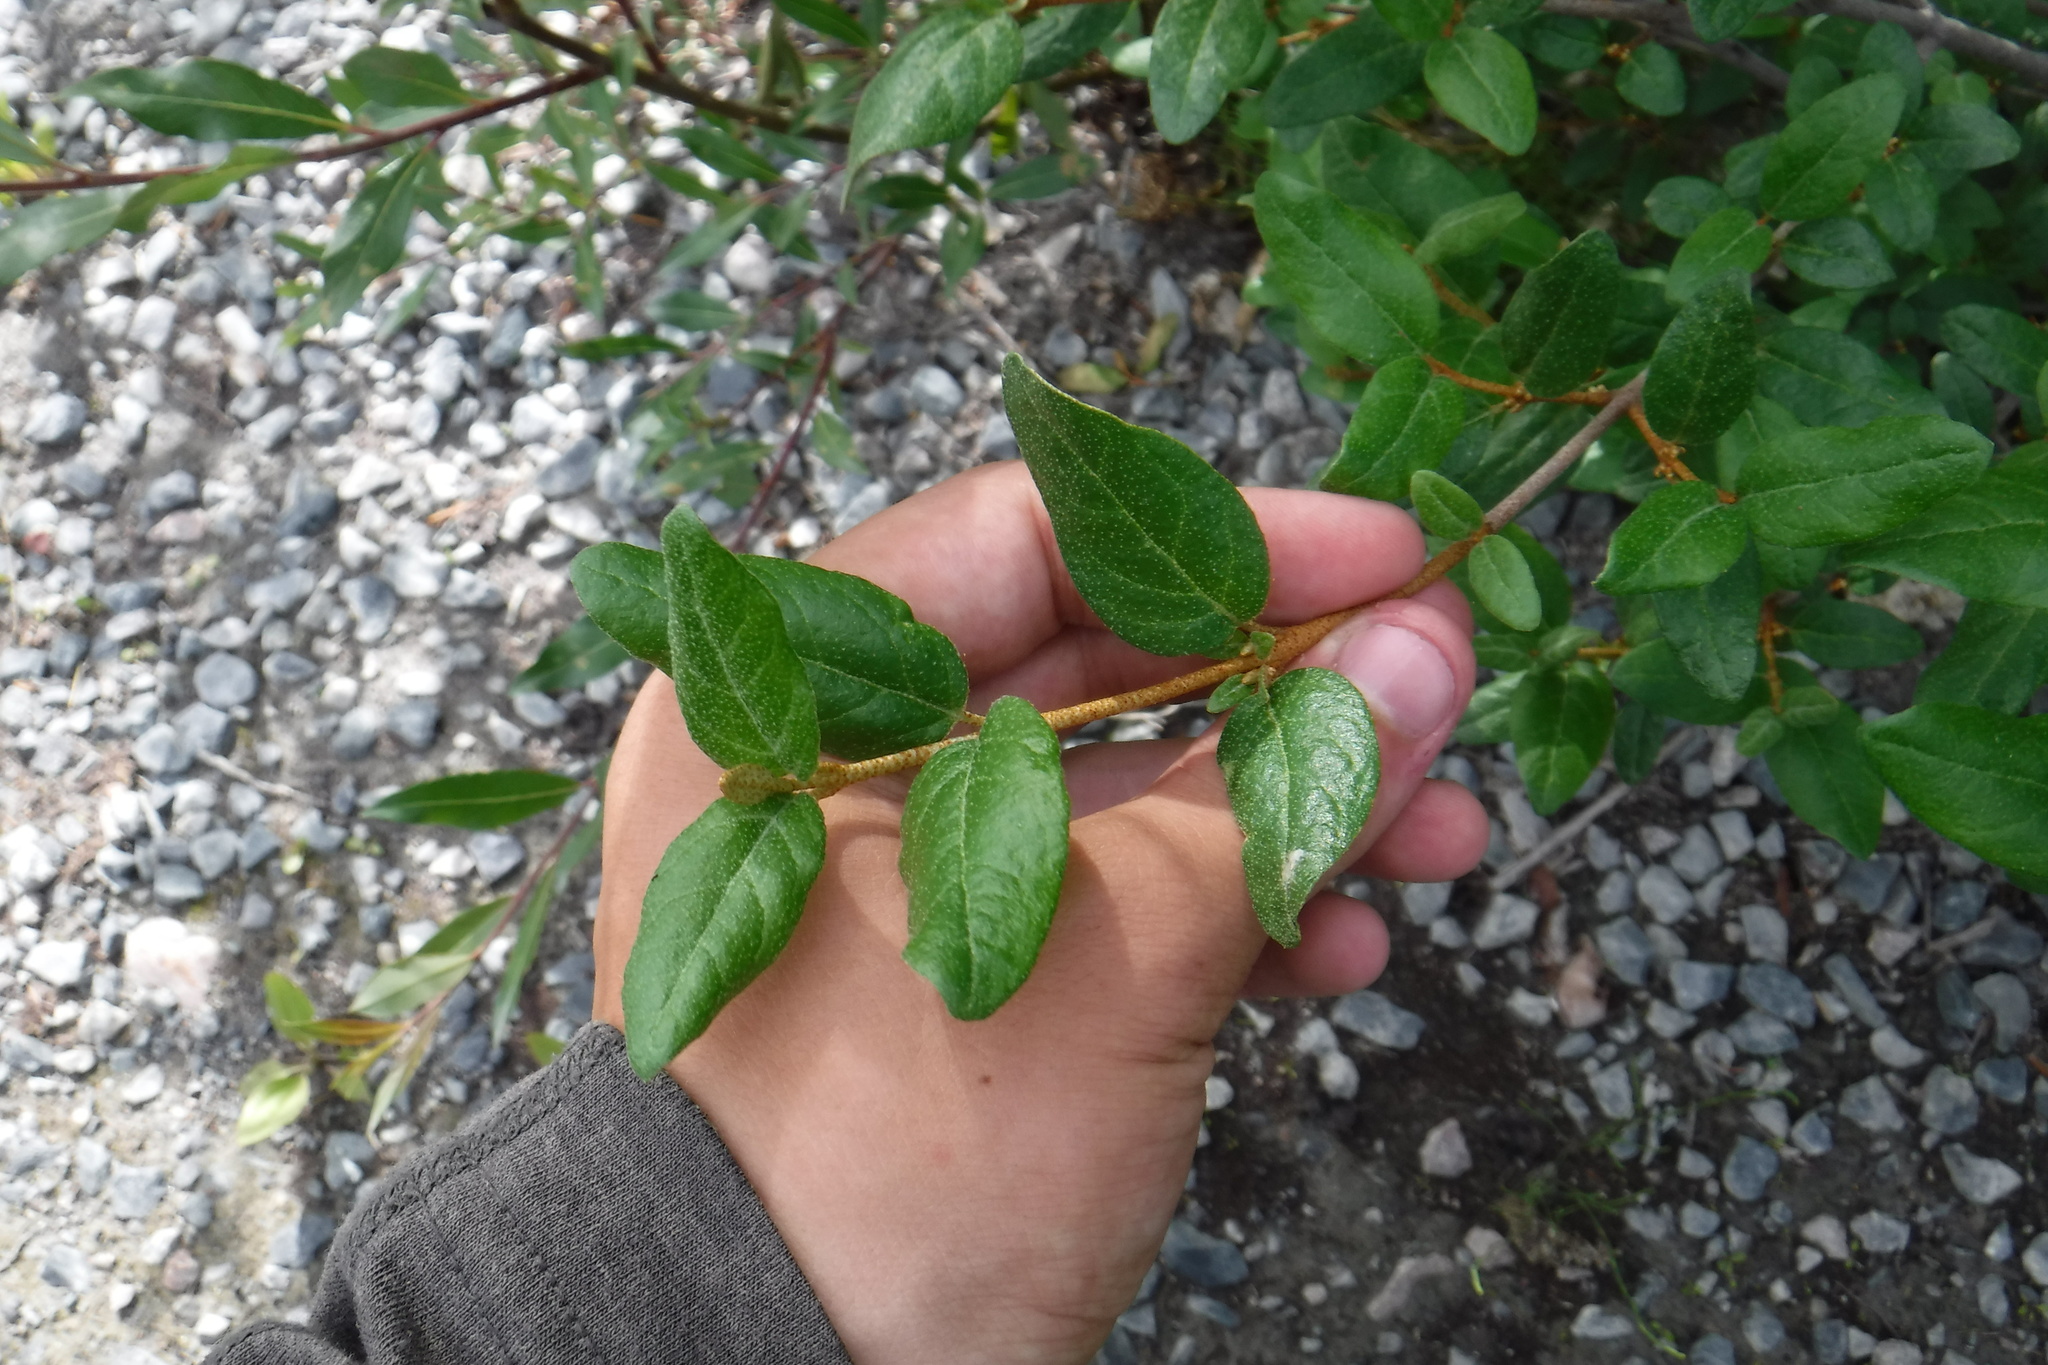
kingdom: Plantae
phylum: Tracheophyta
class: Magnoliopsida
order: Rosales
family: Elaeagnaceae
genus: Shepherdia
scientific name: Shepherdia canadensis
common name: Soapberry
